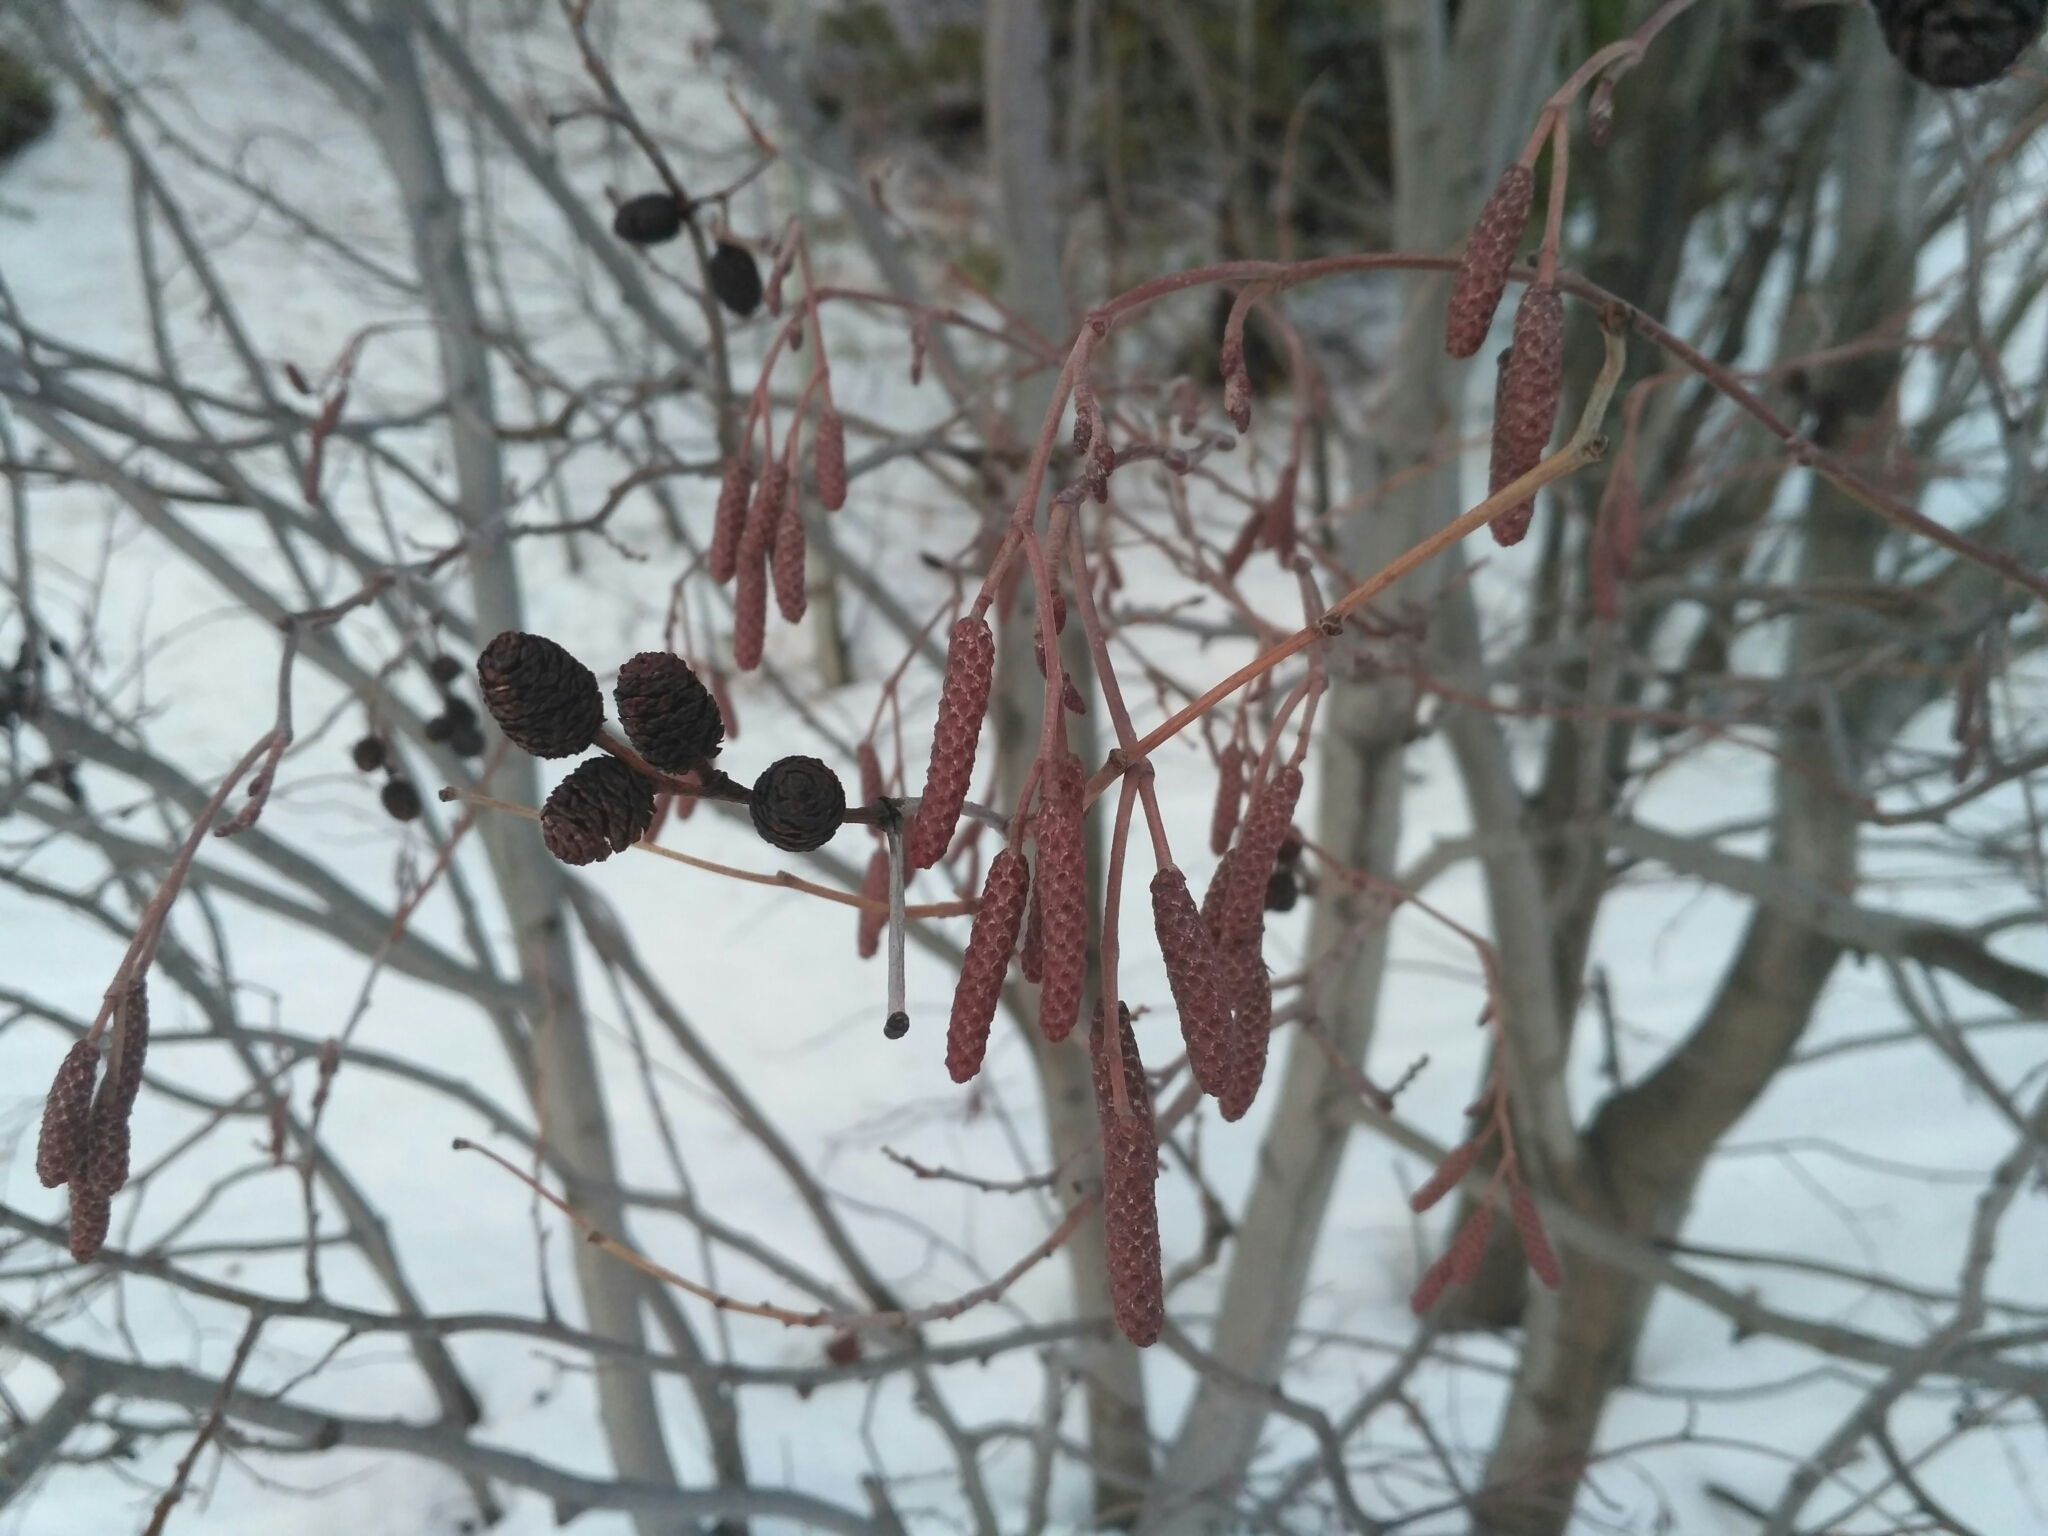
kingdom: Plantae
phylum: Tracheophyta
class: Magnoliopsida
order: Fagales
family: Betulaceae
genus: Alnus
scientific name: Alnus incana
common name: Grey alder
